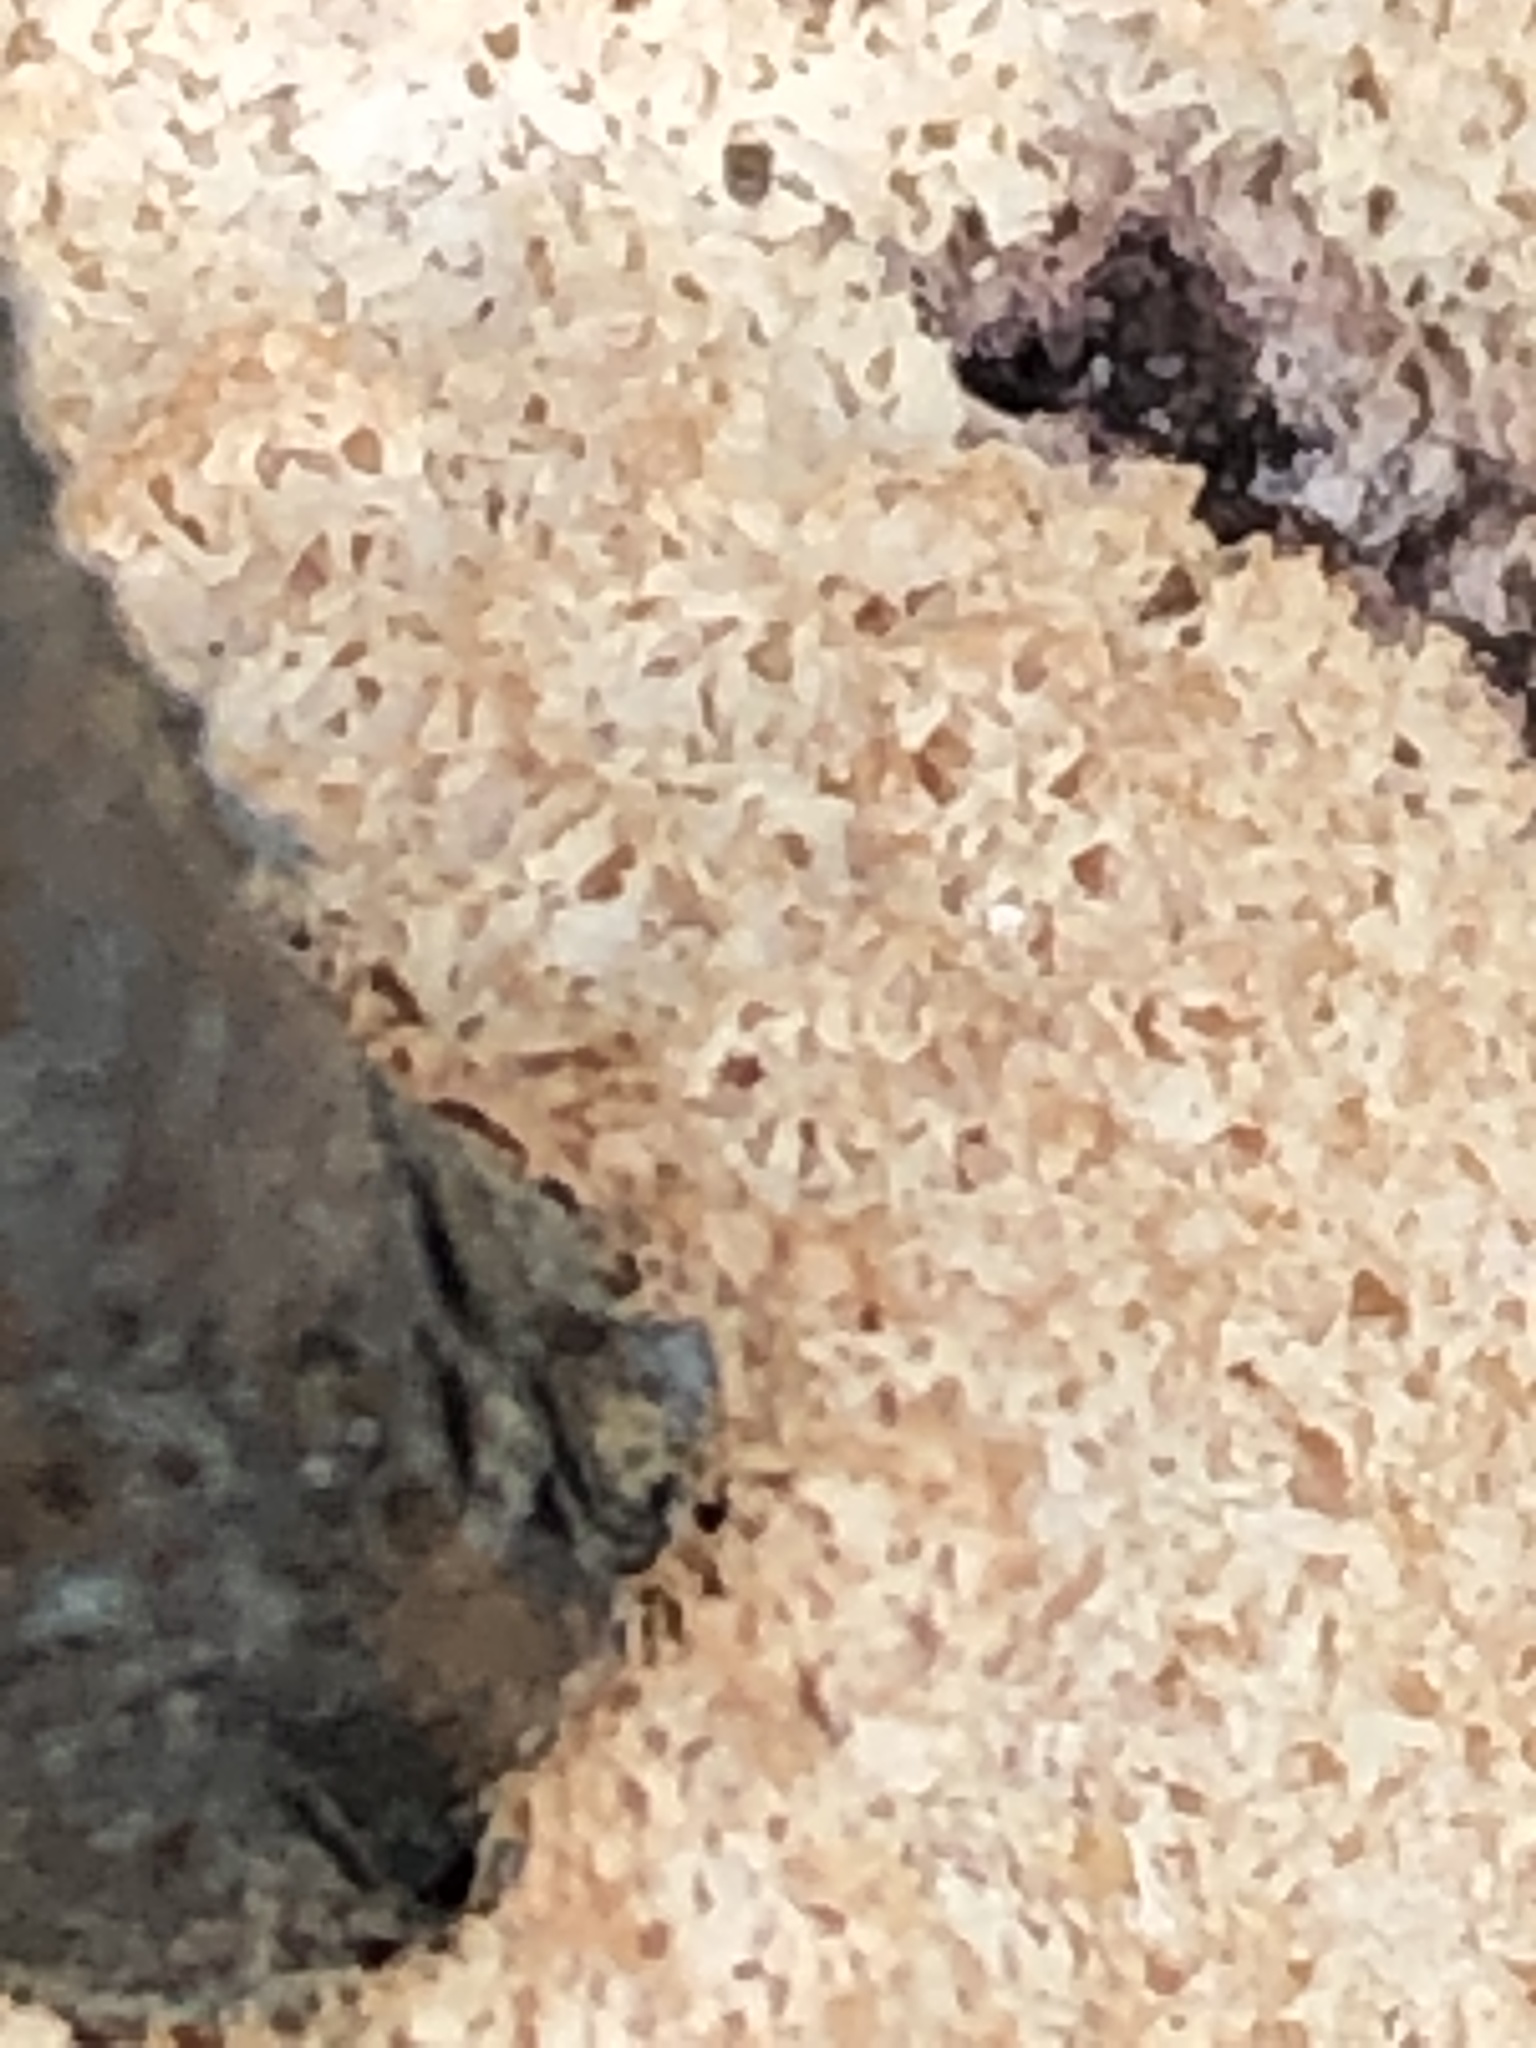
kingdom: Protozoa
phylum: Mycetozoa
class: Myxomycetes
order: Physarales
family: Physaraceae
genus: Fuligo
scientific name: Fuligo septica
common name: Dog vomit slime mold
